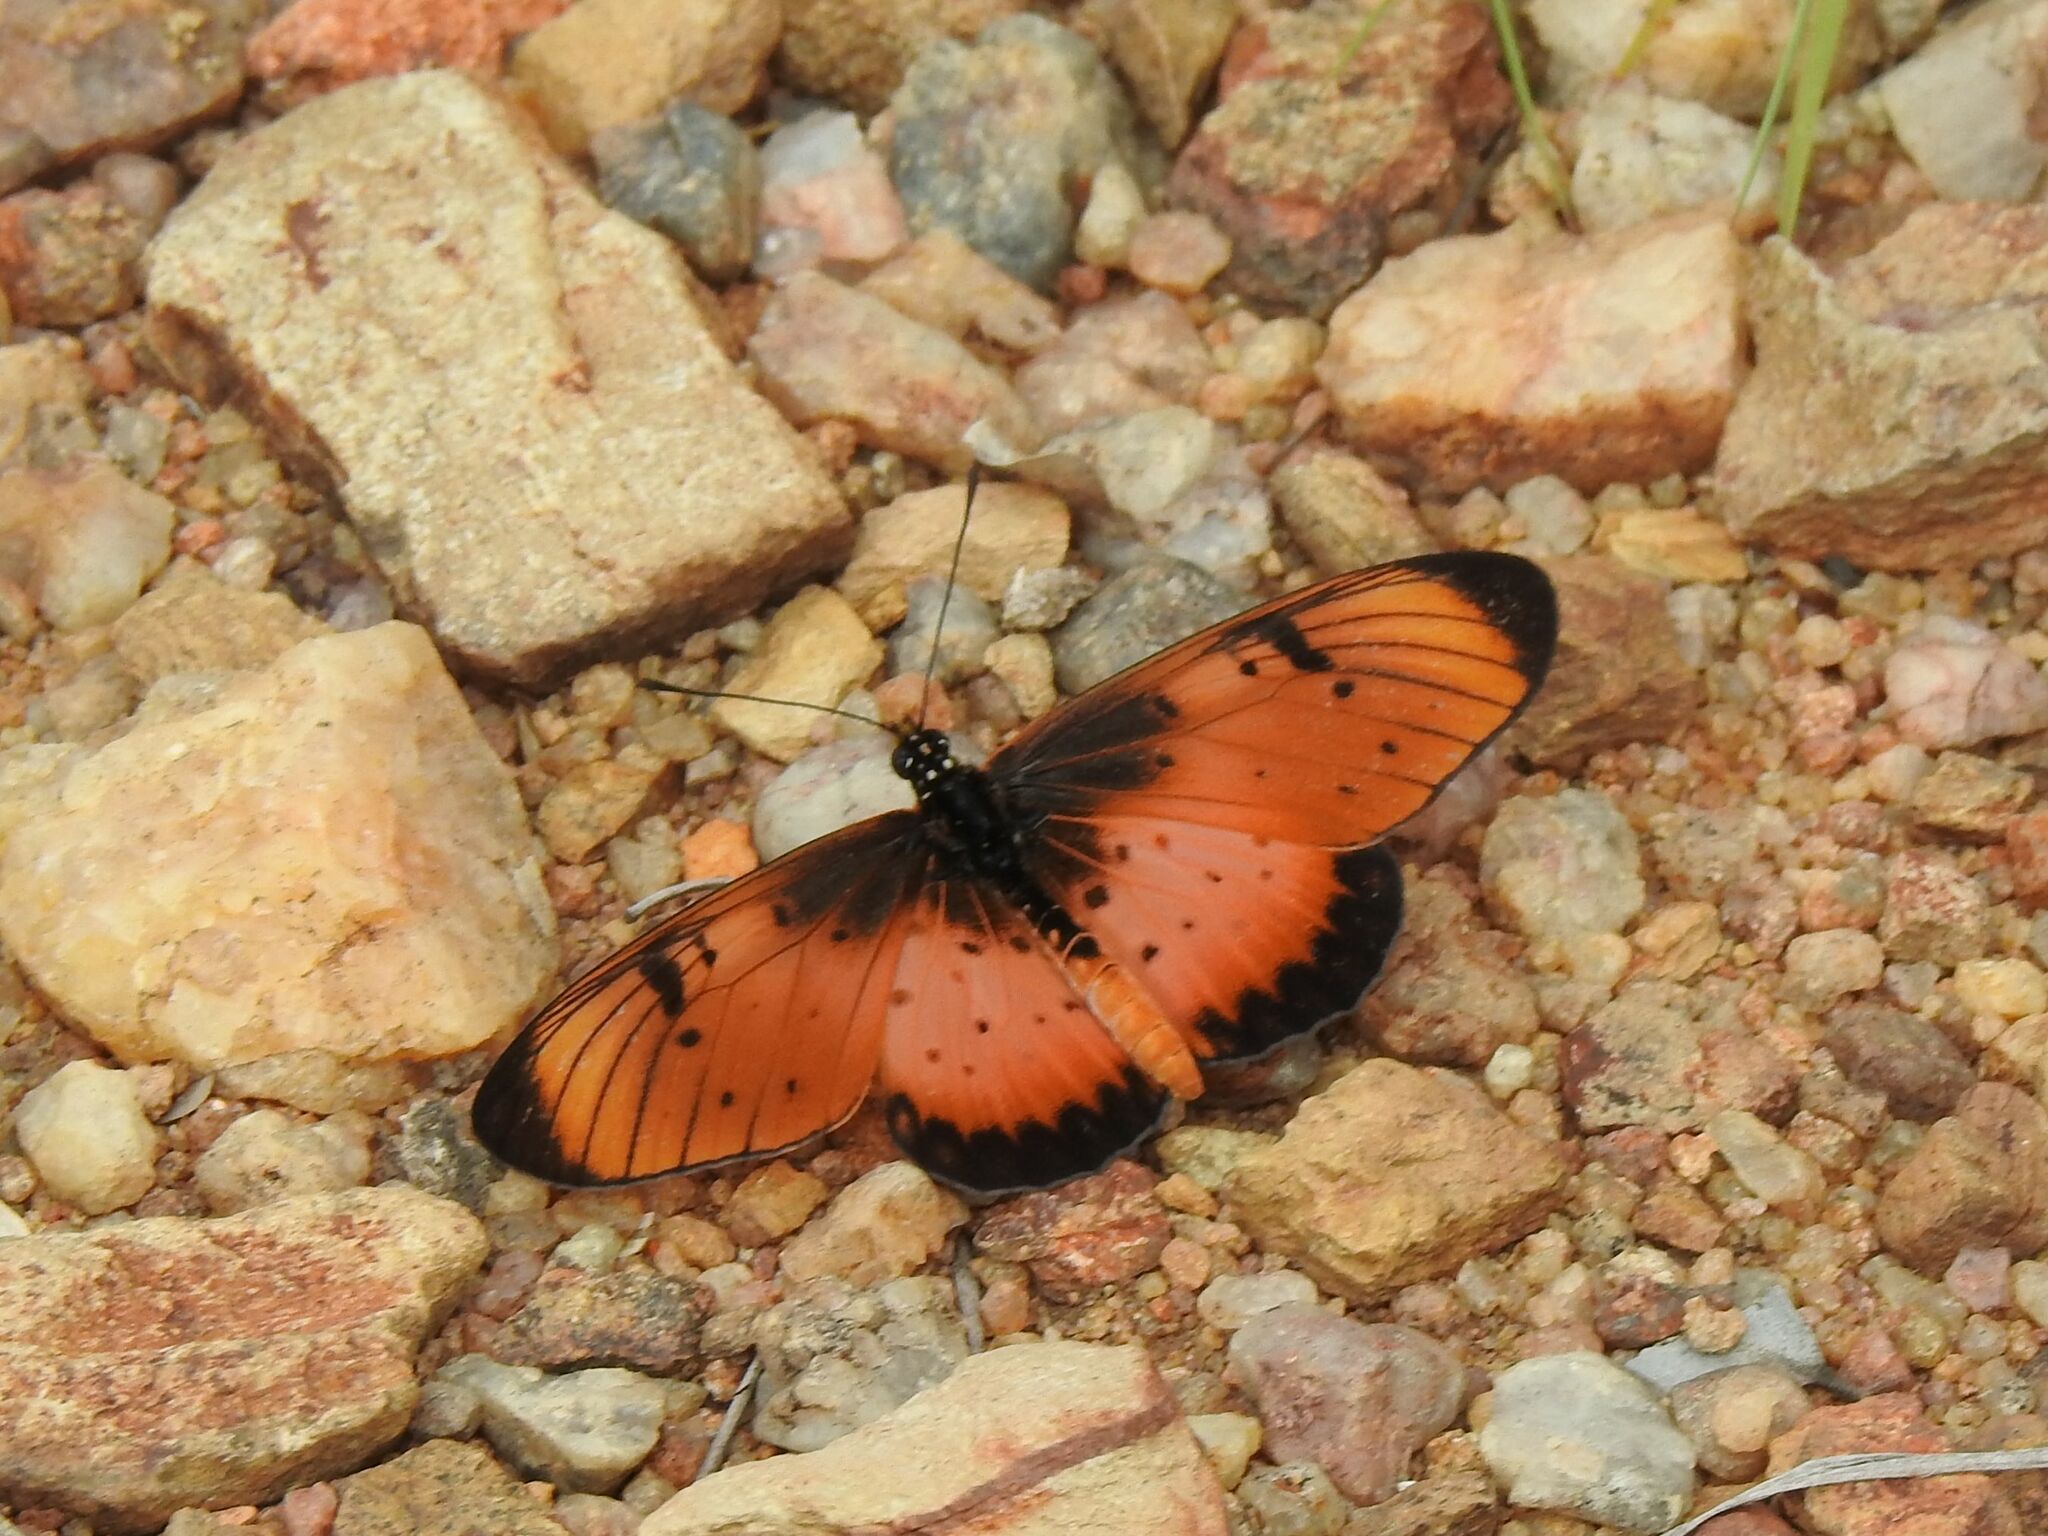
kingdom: Animalia
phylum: Arthropoda
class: Insecta
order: Lepidoptera
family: Nymphalidae
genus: Stephenia
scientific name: Stephenia
